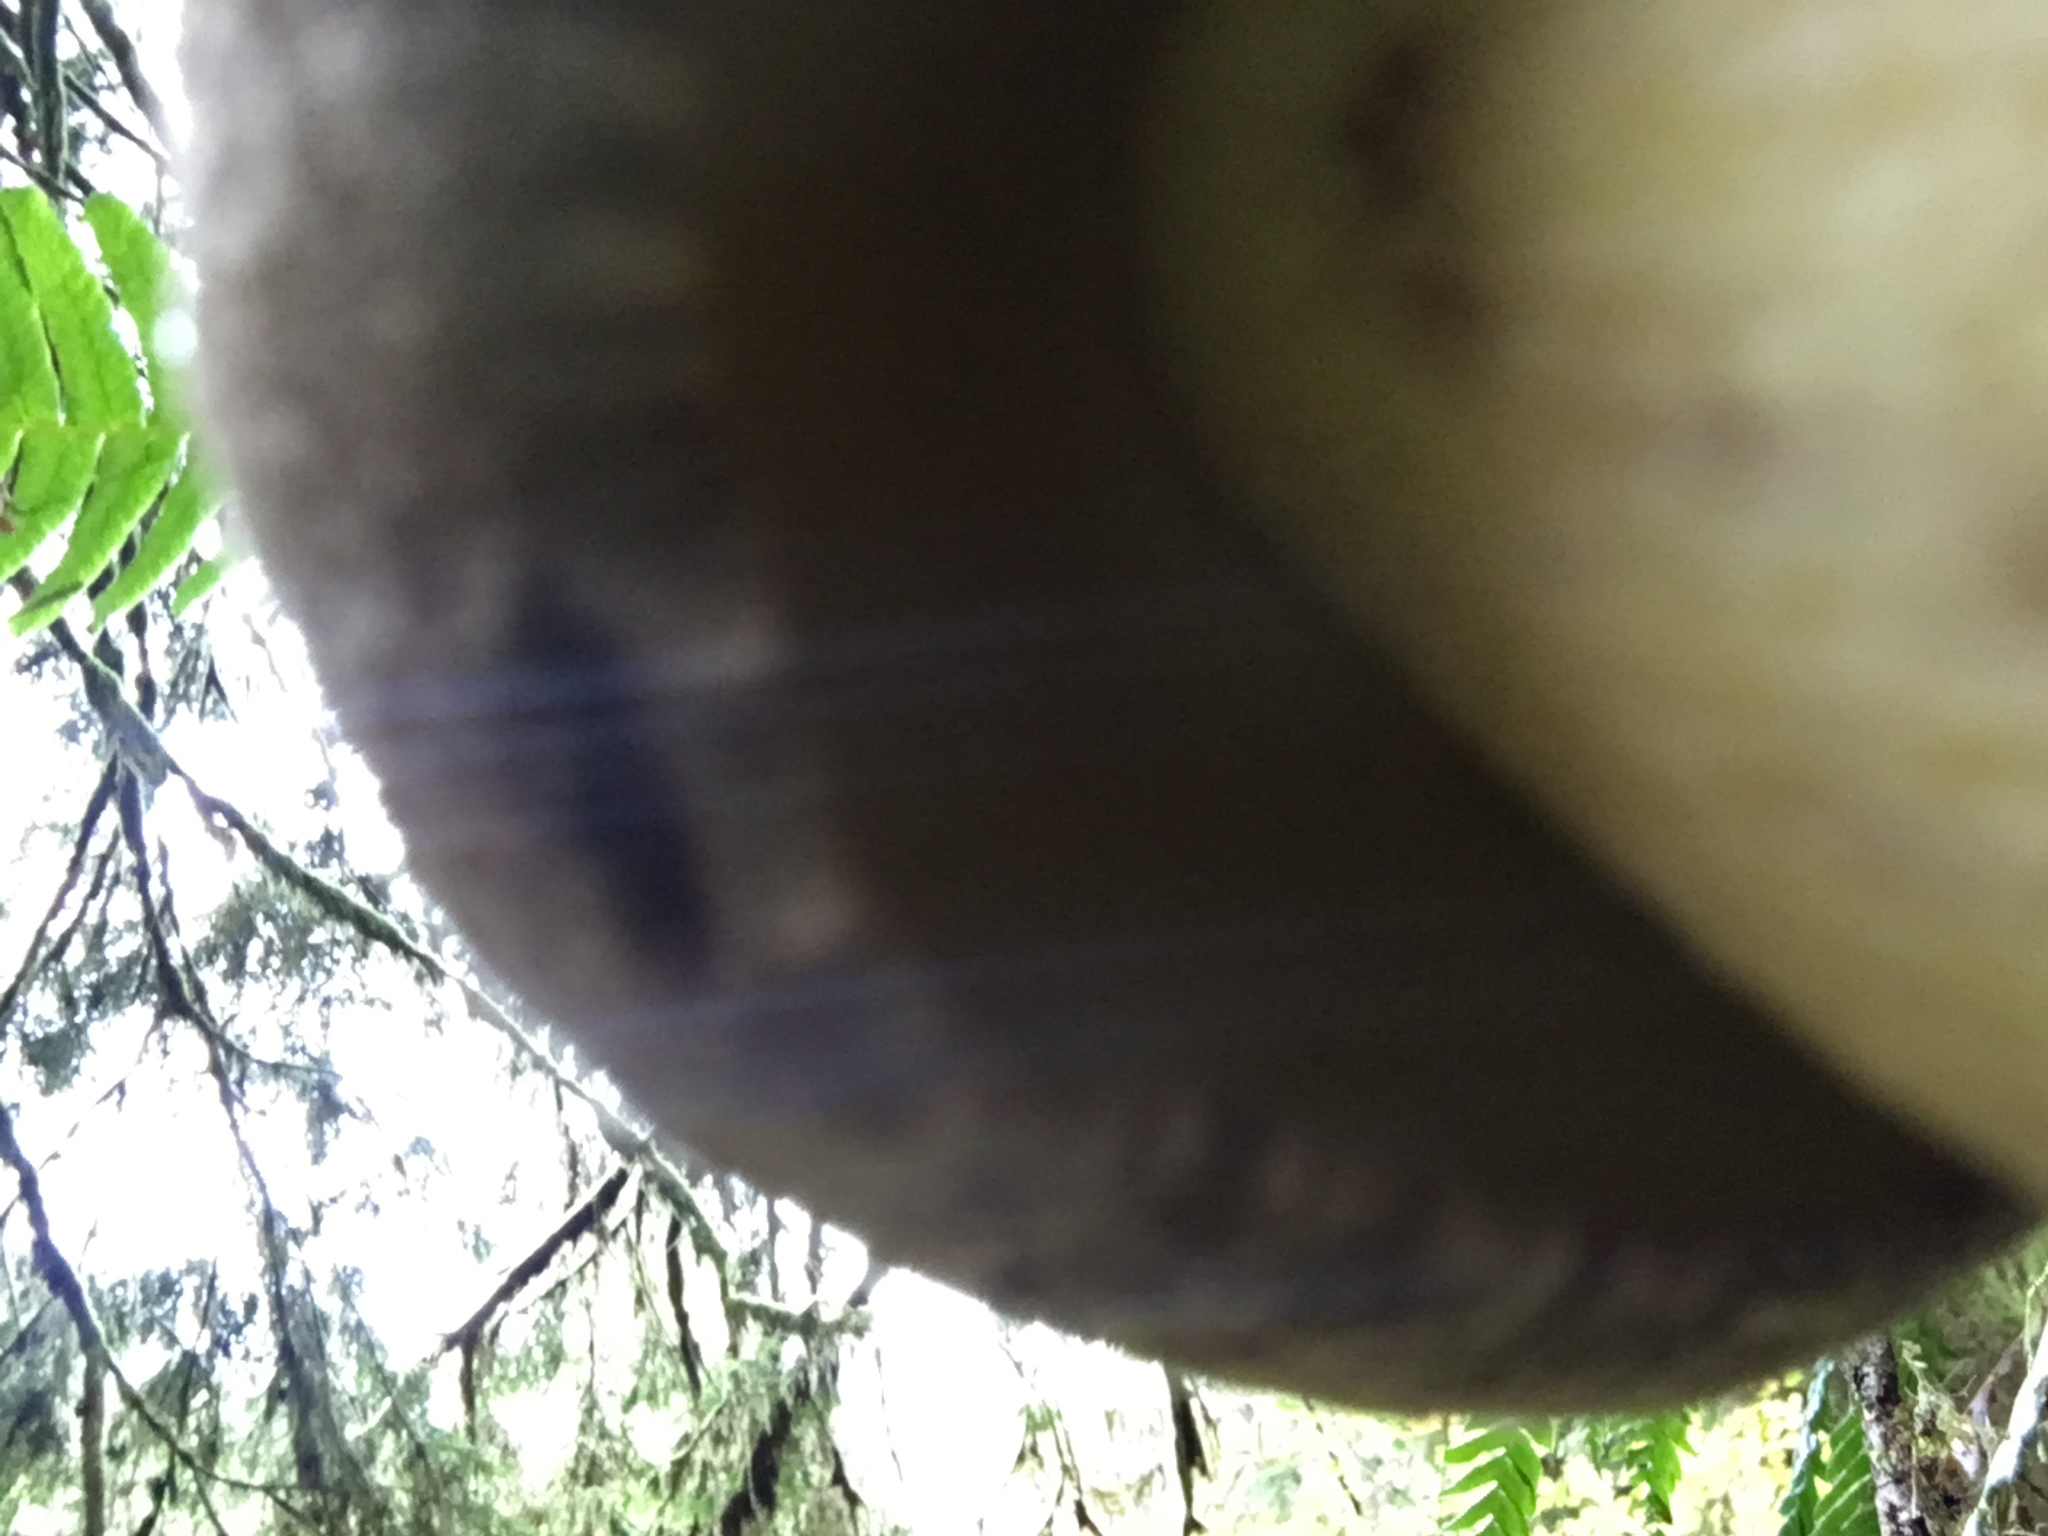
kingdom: Fungi
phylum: Basidiomycota
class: Agaricomycetes
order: Boletales
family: Boletaceae
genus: Caloboletus
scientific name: Caloboletus conifericola
